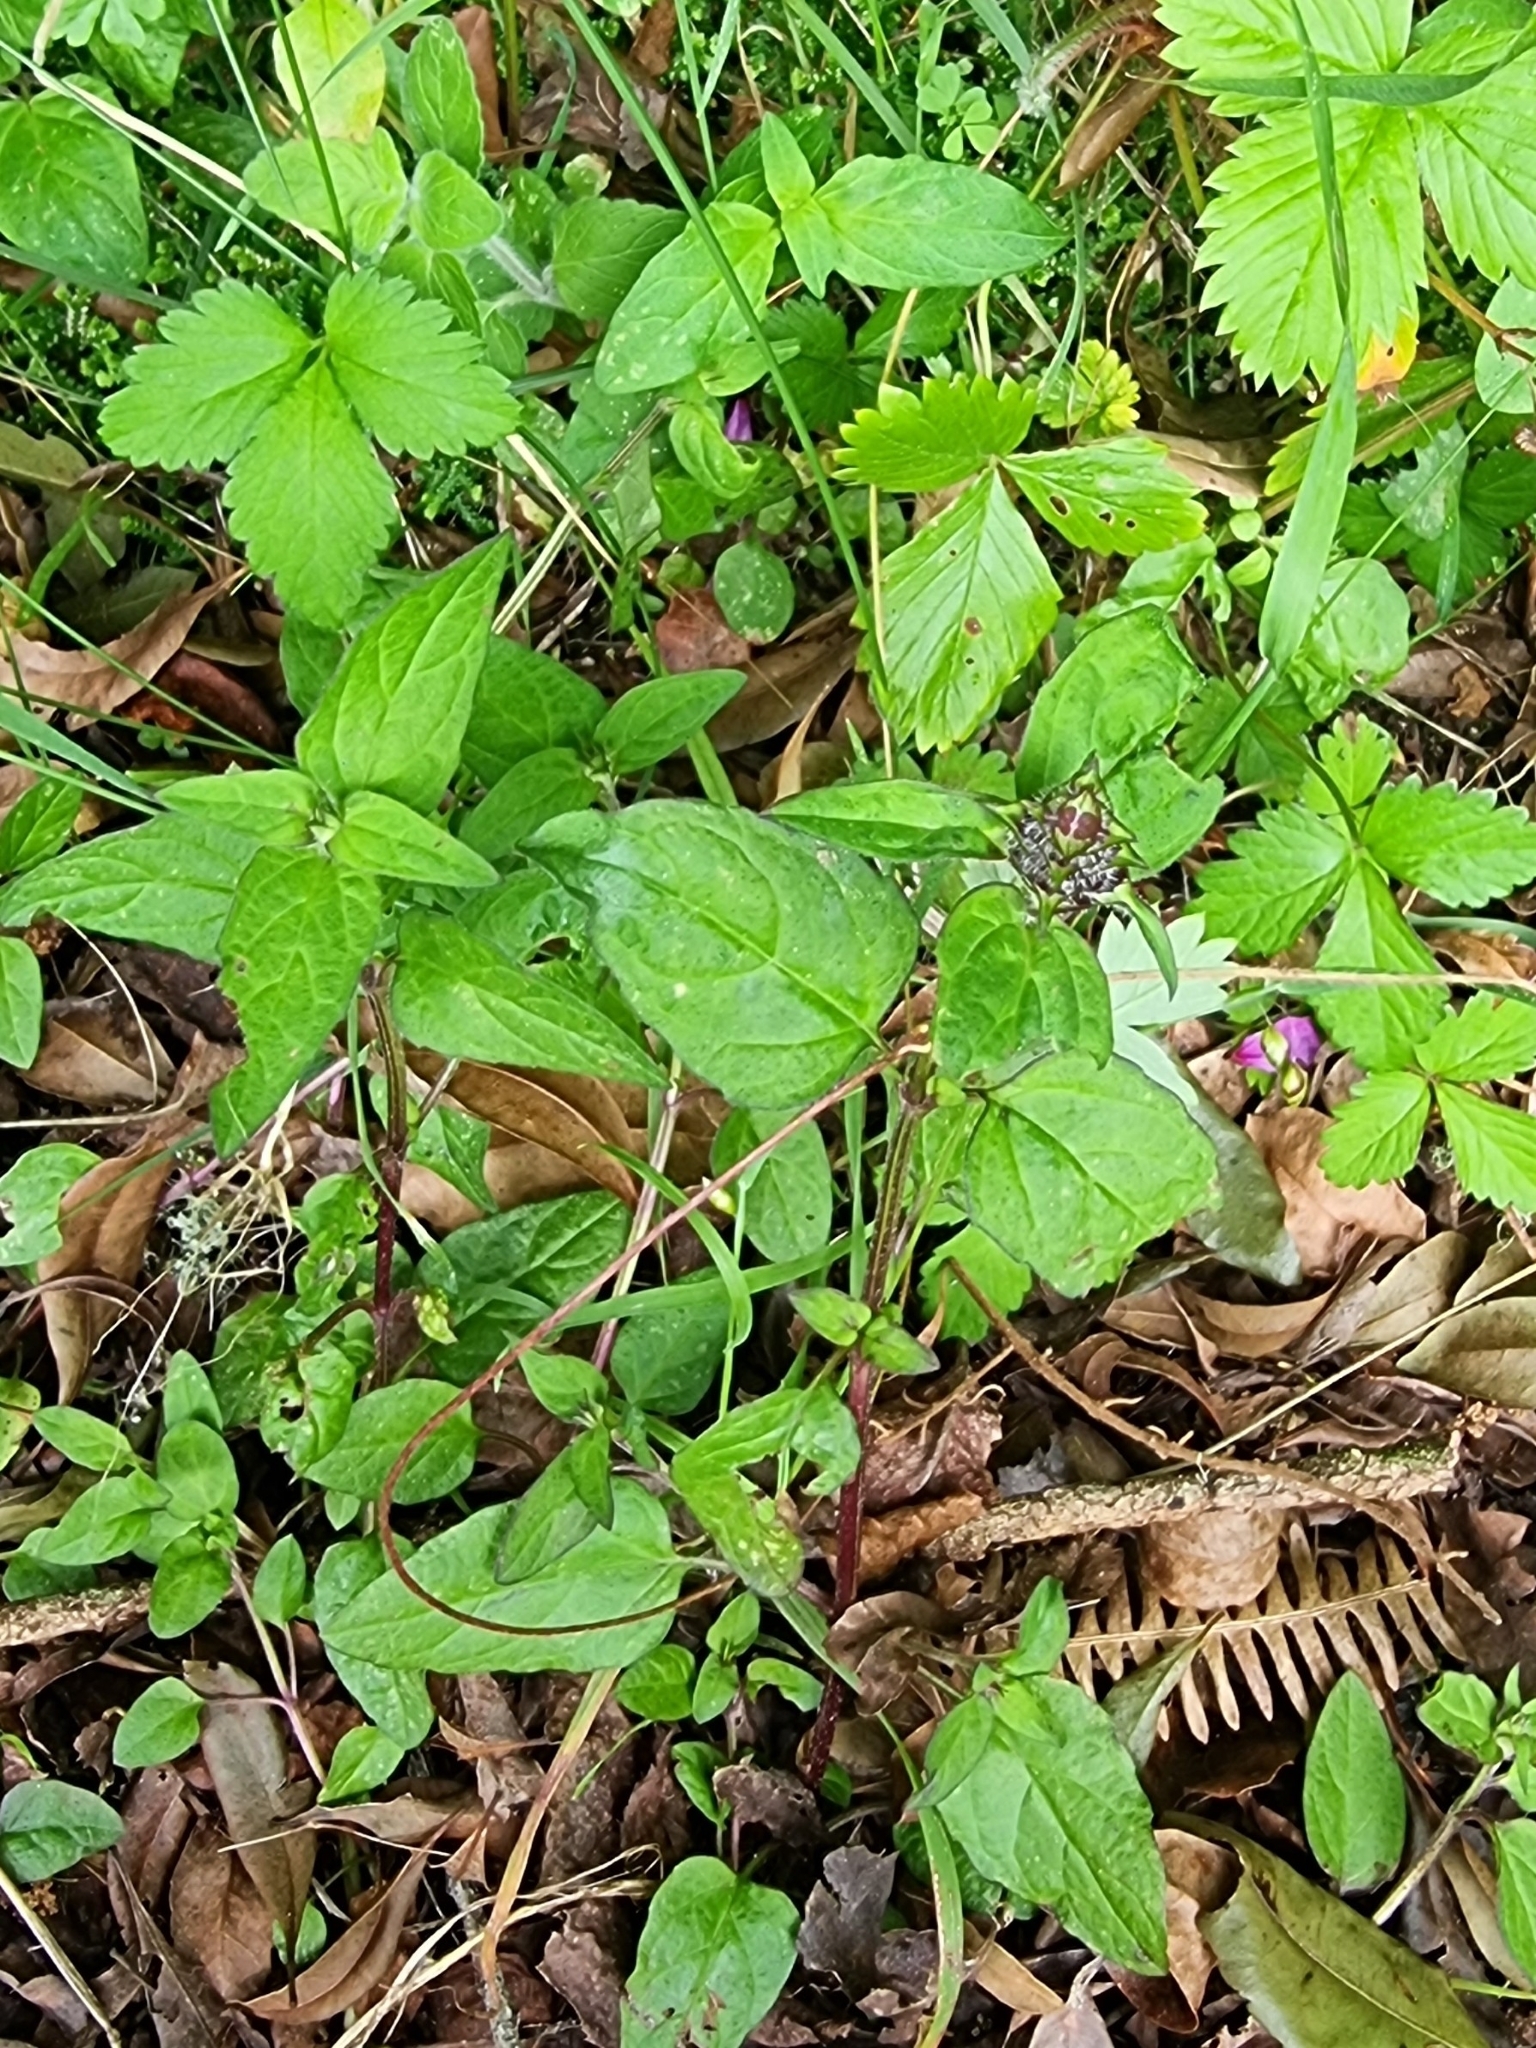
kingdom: Plantae
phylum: Tracheophyta
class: Magnoliopsida
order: Lamiales
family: Lamiaceae
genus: Prunella
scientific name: Prunella vulgaris
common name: Heal-all
